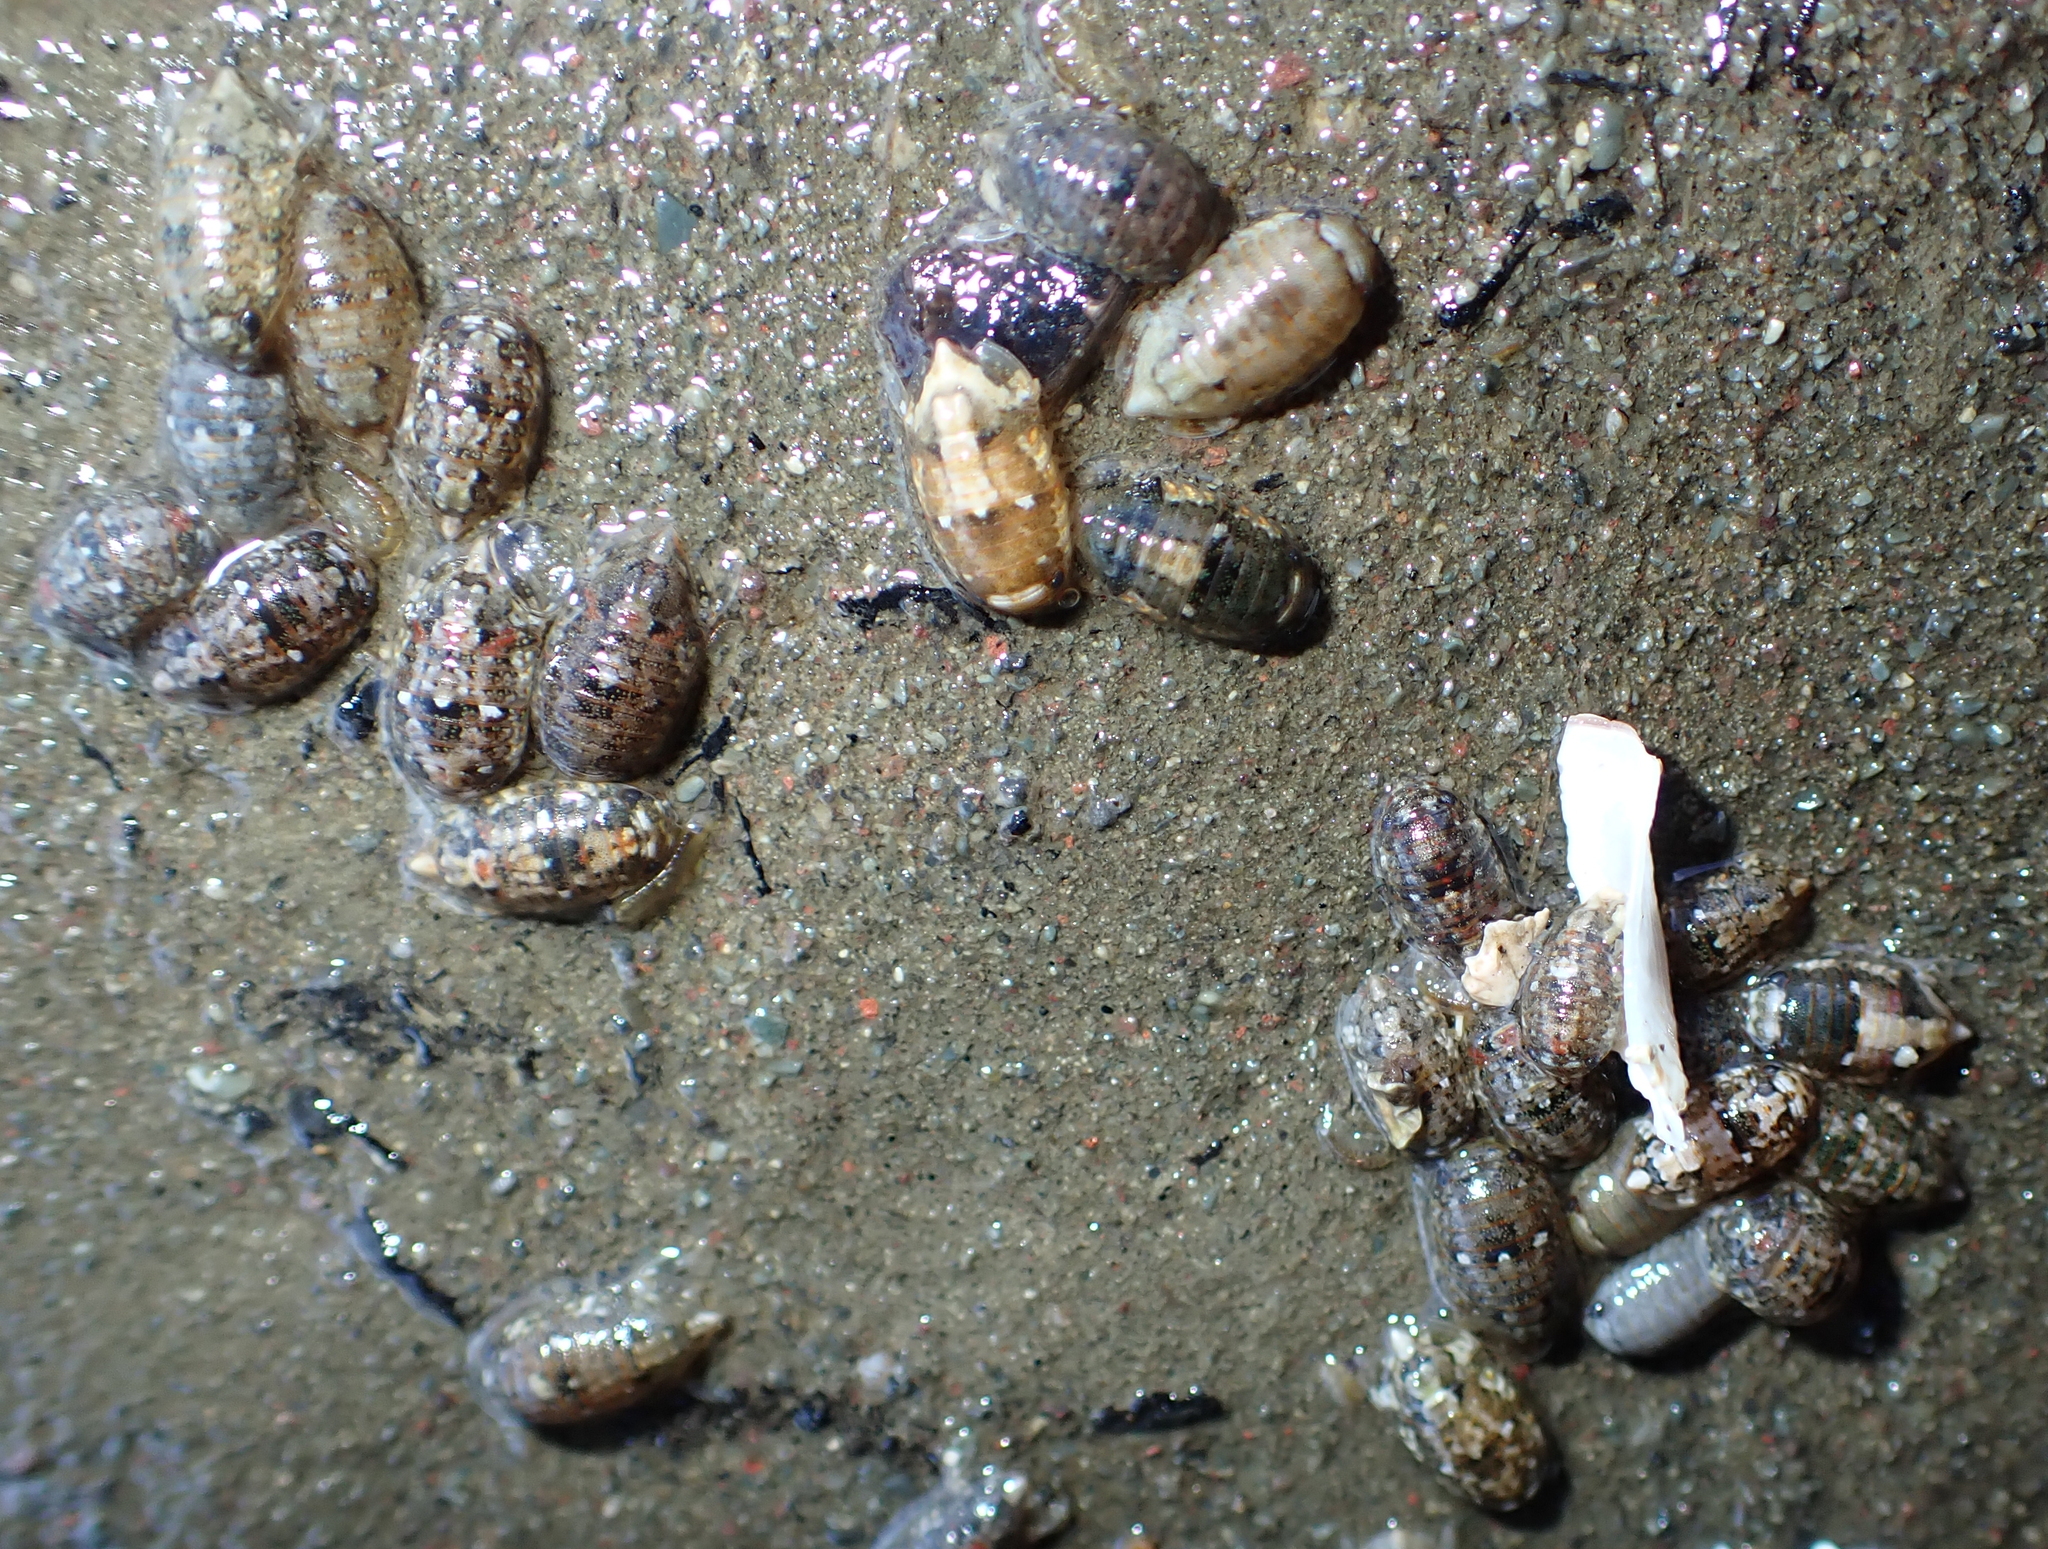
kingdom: Animalia
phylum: Arthropoda
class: Malacostraca
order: Isopoda
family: Sphaeromatidae
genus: Isocladus
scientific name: Isocladus armatus
